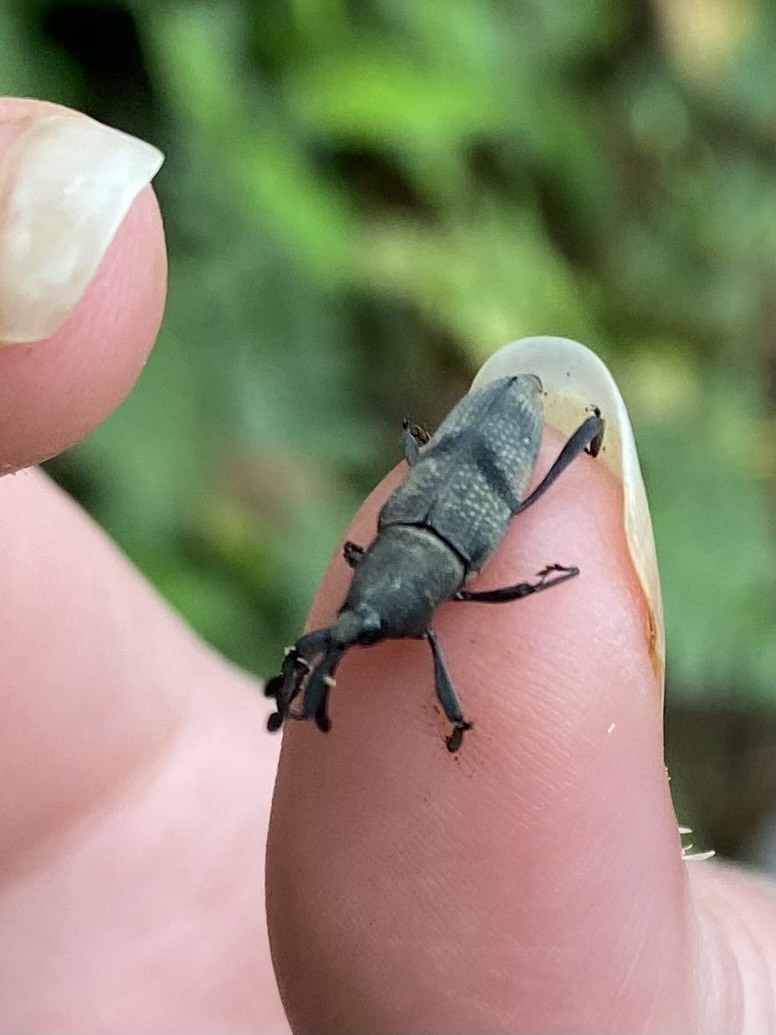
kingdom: Animalia
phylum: Arthropoda
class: Insecta
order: Coleoptera
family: Dryophthoridae
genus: Rhodobaenus
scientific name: Rhodobaenus
